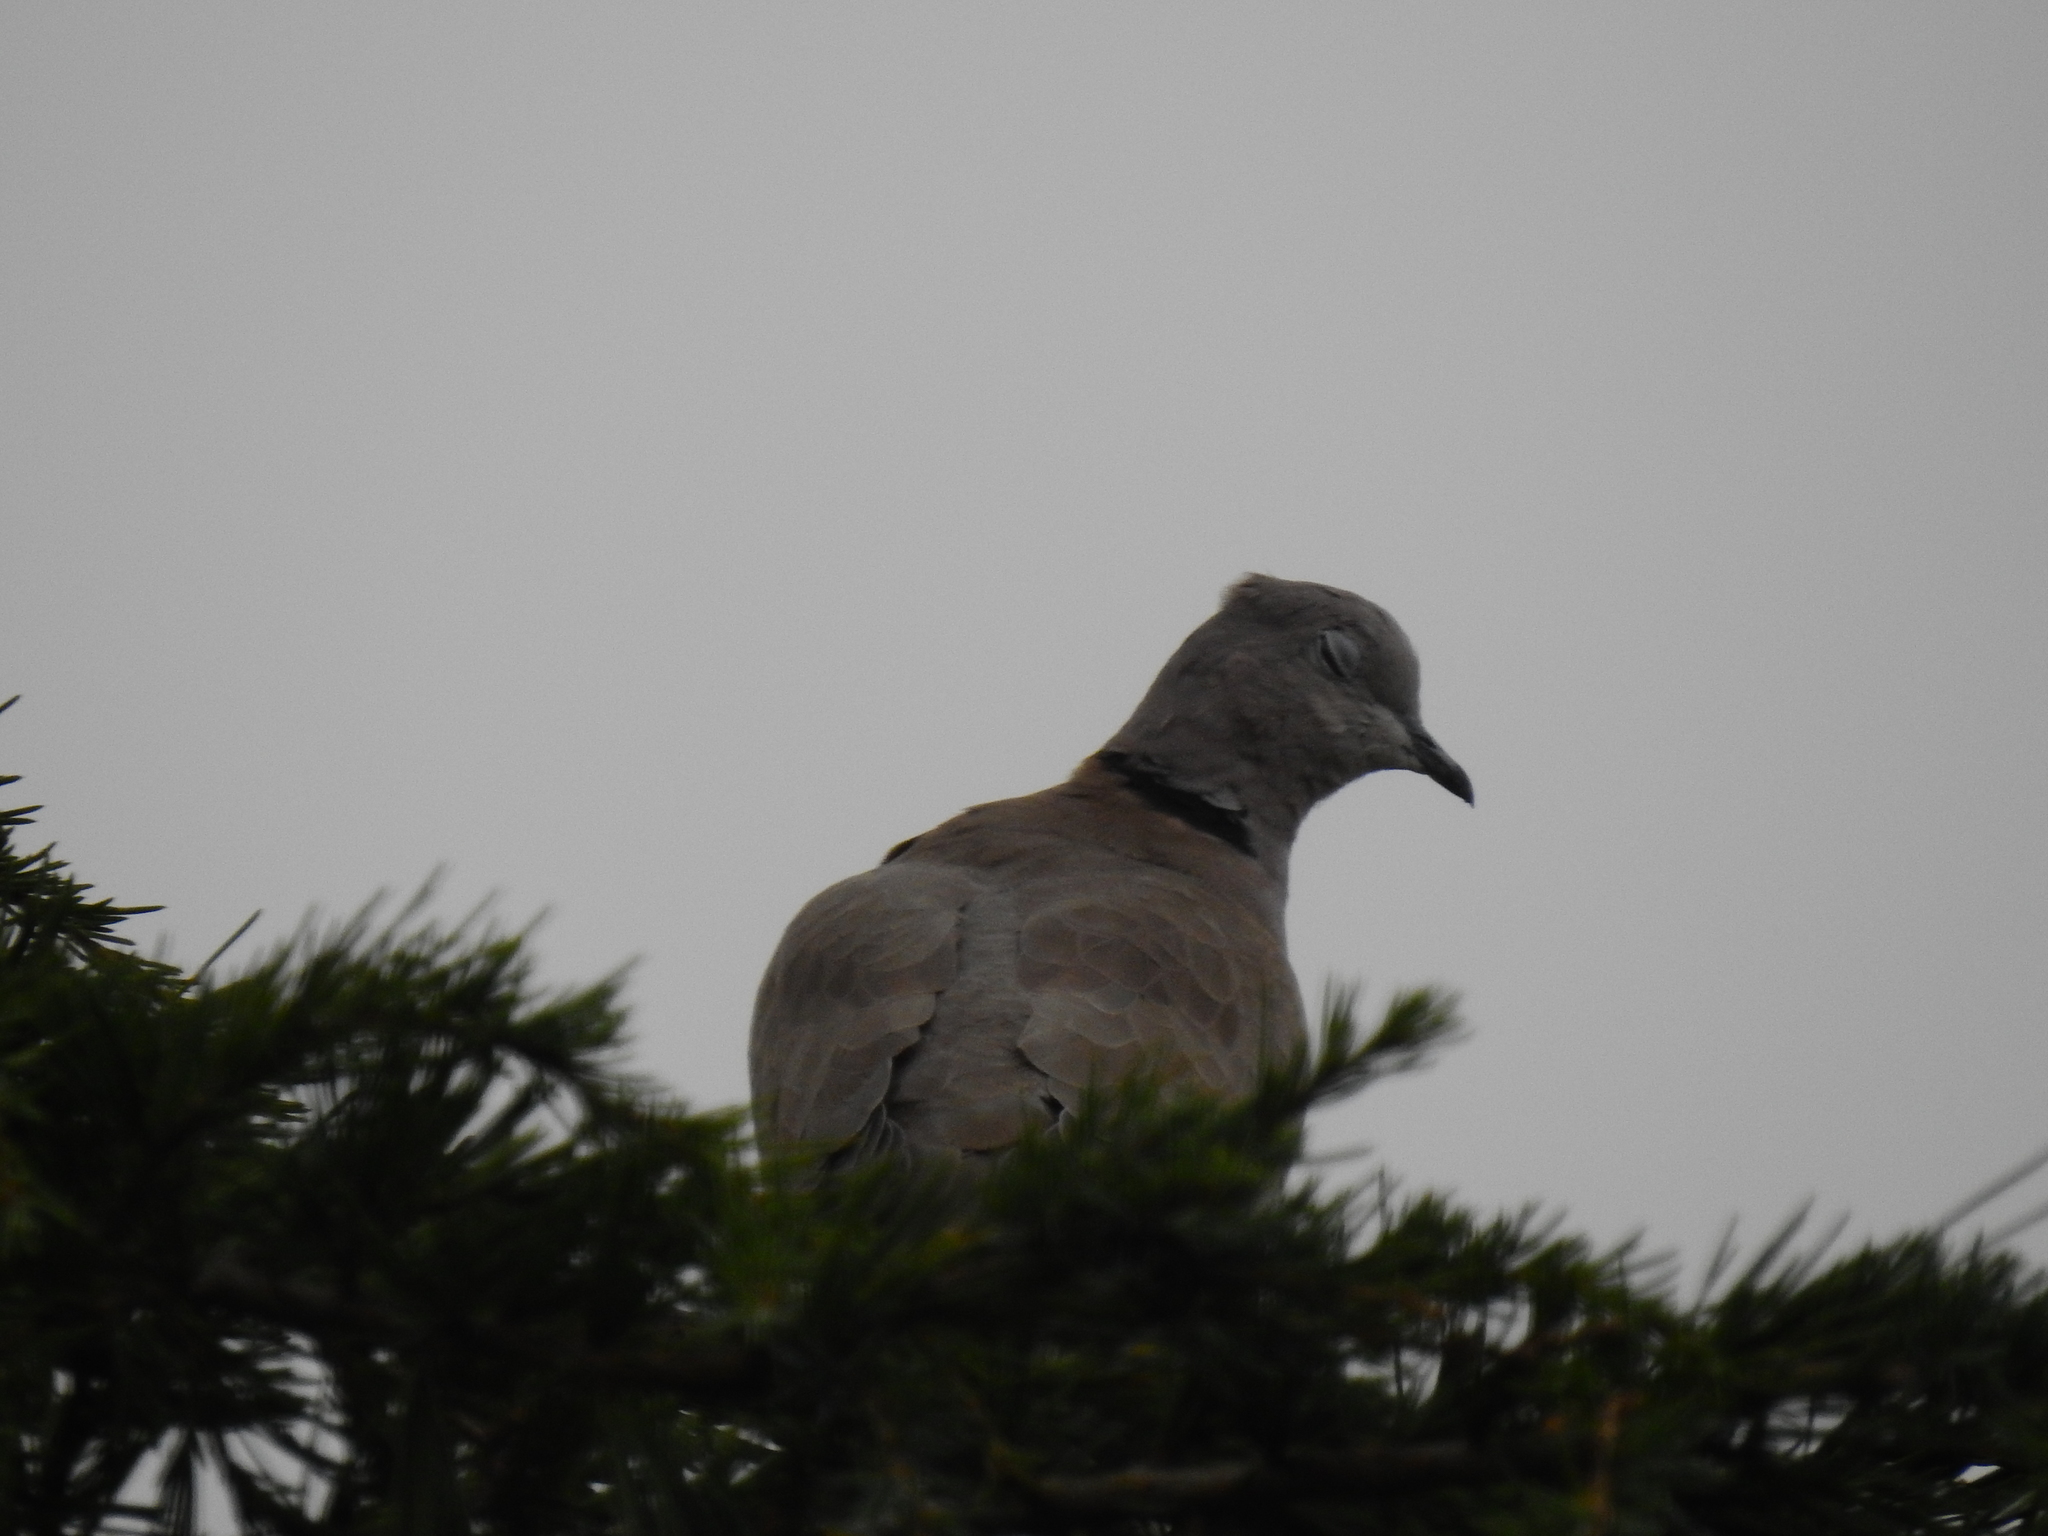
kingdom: Animalia
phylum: Chordata
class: Aves
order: Columbiformes
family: Columbidae
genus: Streptopelia
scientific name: Streptopelia decaocto
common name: Eurasian collared dove
